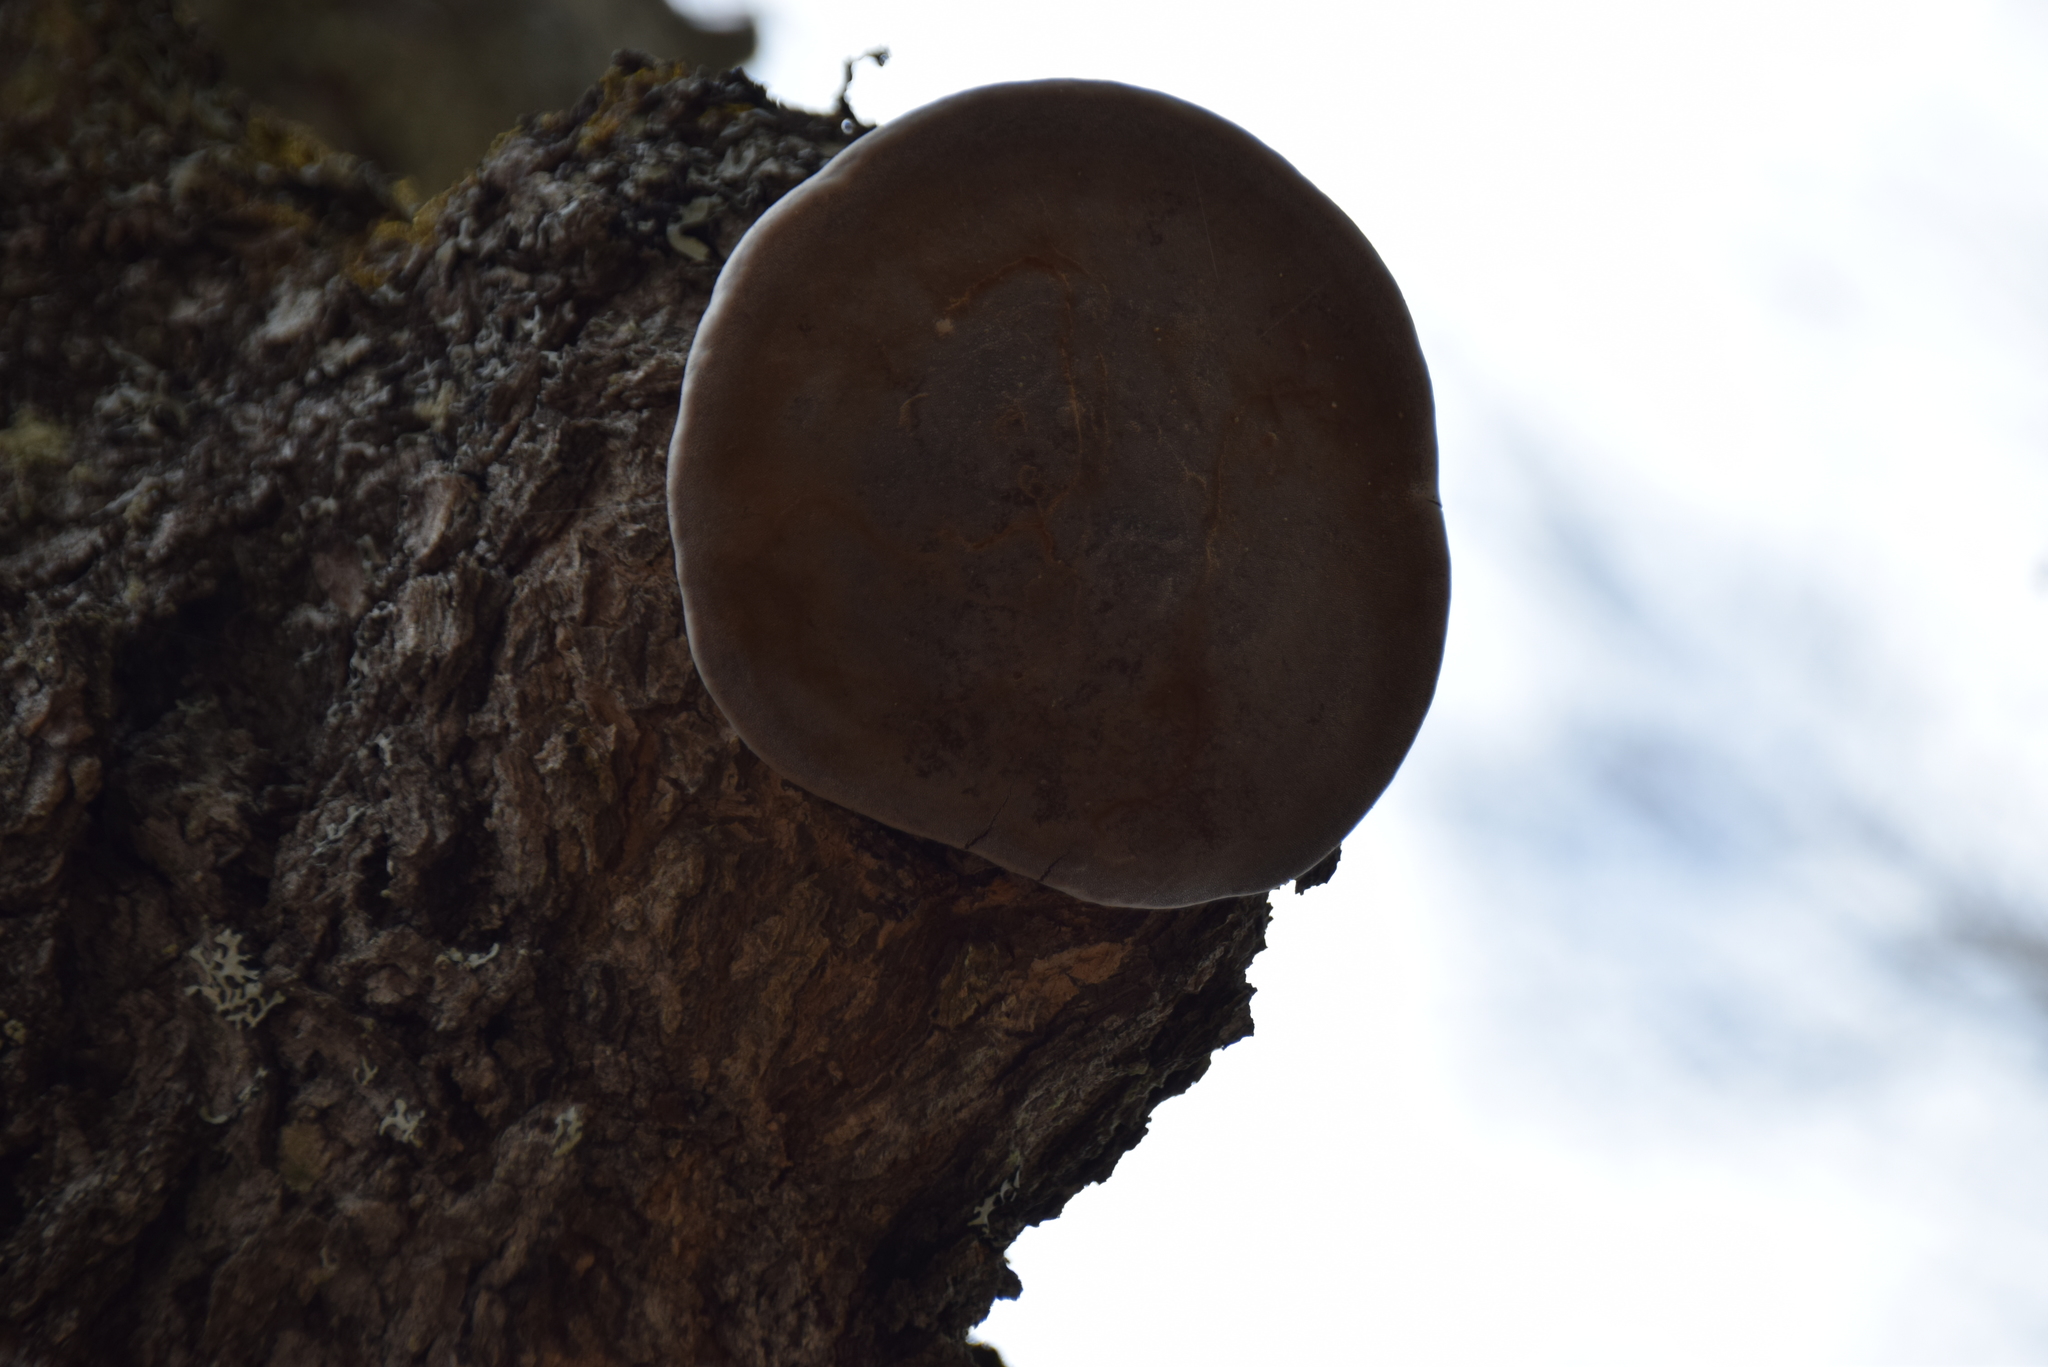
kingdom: Fungi
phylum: Basidiomycota
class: Agaricomycetes
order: Hymenochaetales
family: Hymenochaetaceae
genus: Phellinus
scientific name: Phellinus igniarius
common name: Willow bracket
